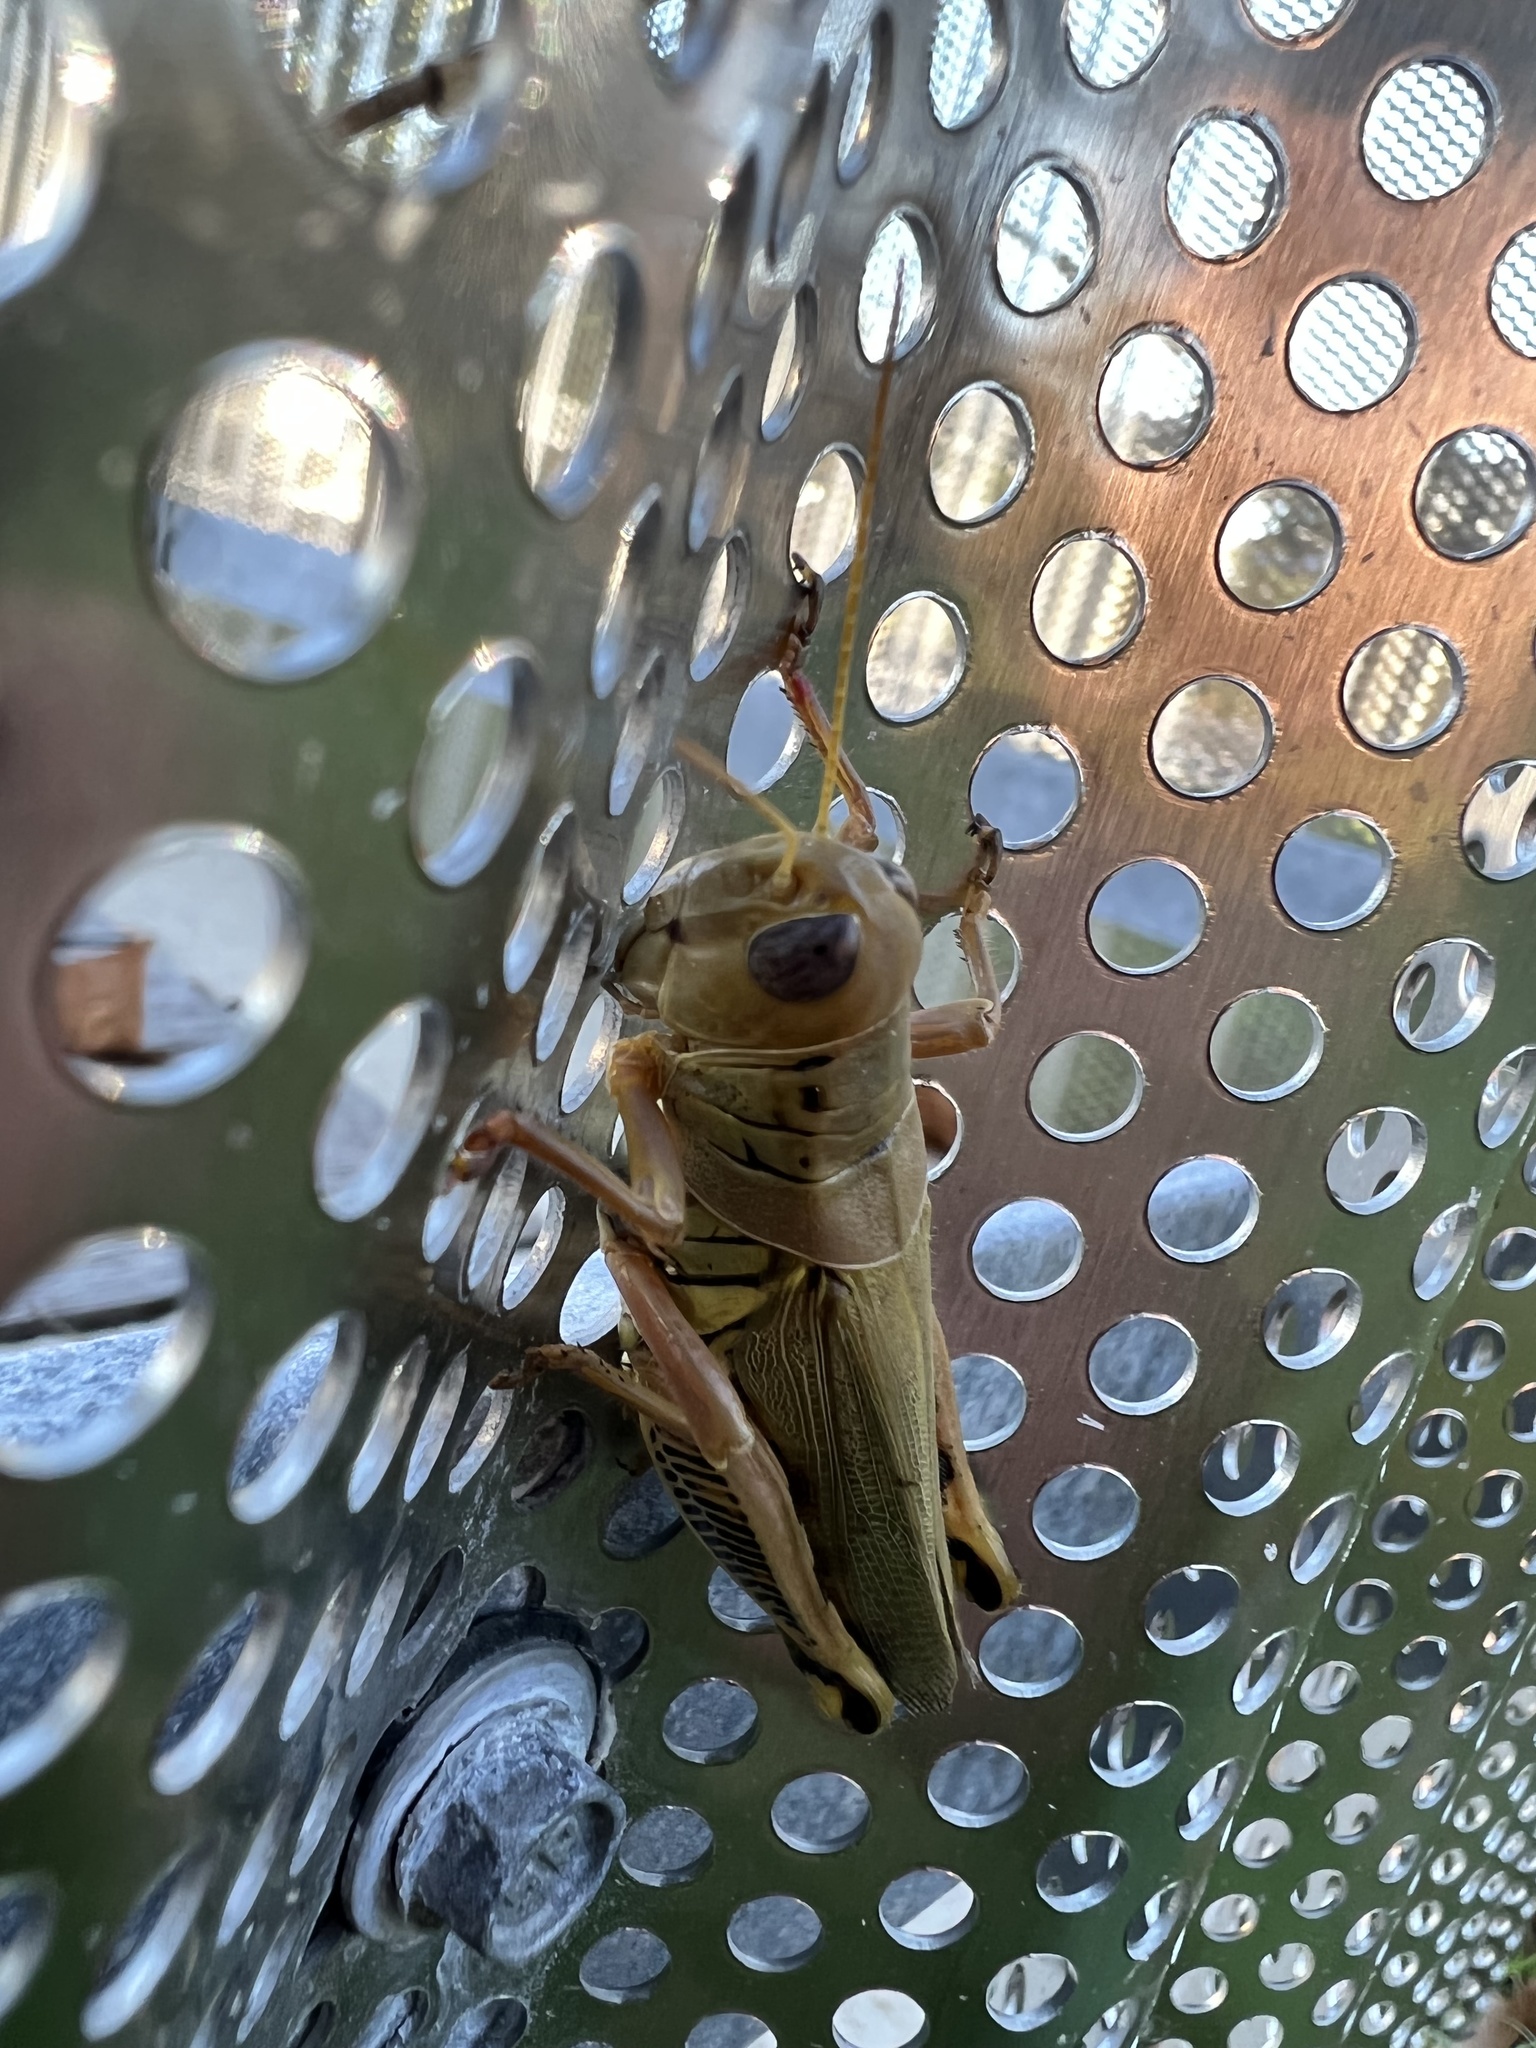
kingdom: Animalia
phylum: Arthropoda
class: Insecta
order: Orthoptera
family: Acrididae
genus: Melanoplus
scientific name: Melanoplus differentialis
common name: Differential grasshopper
